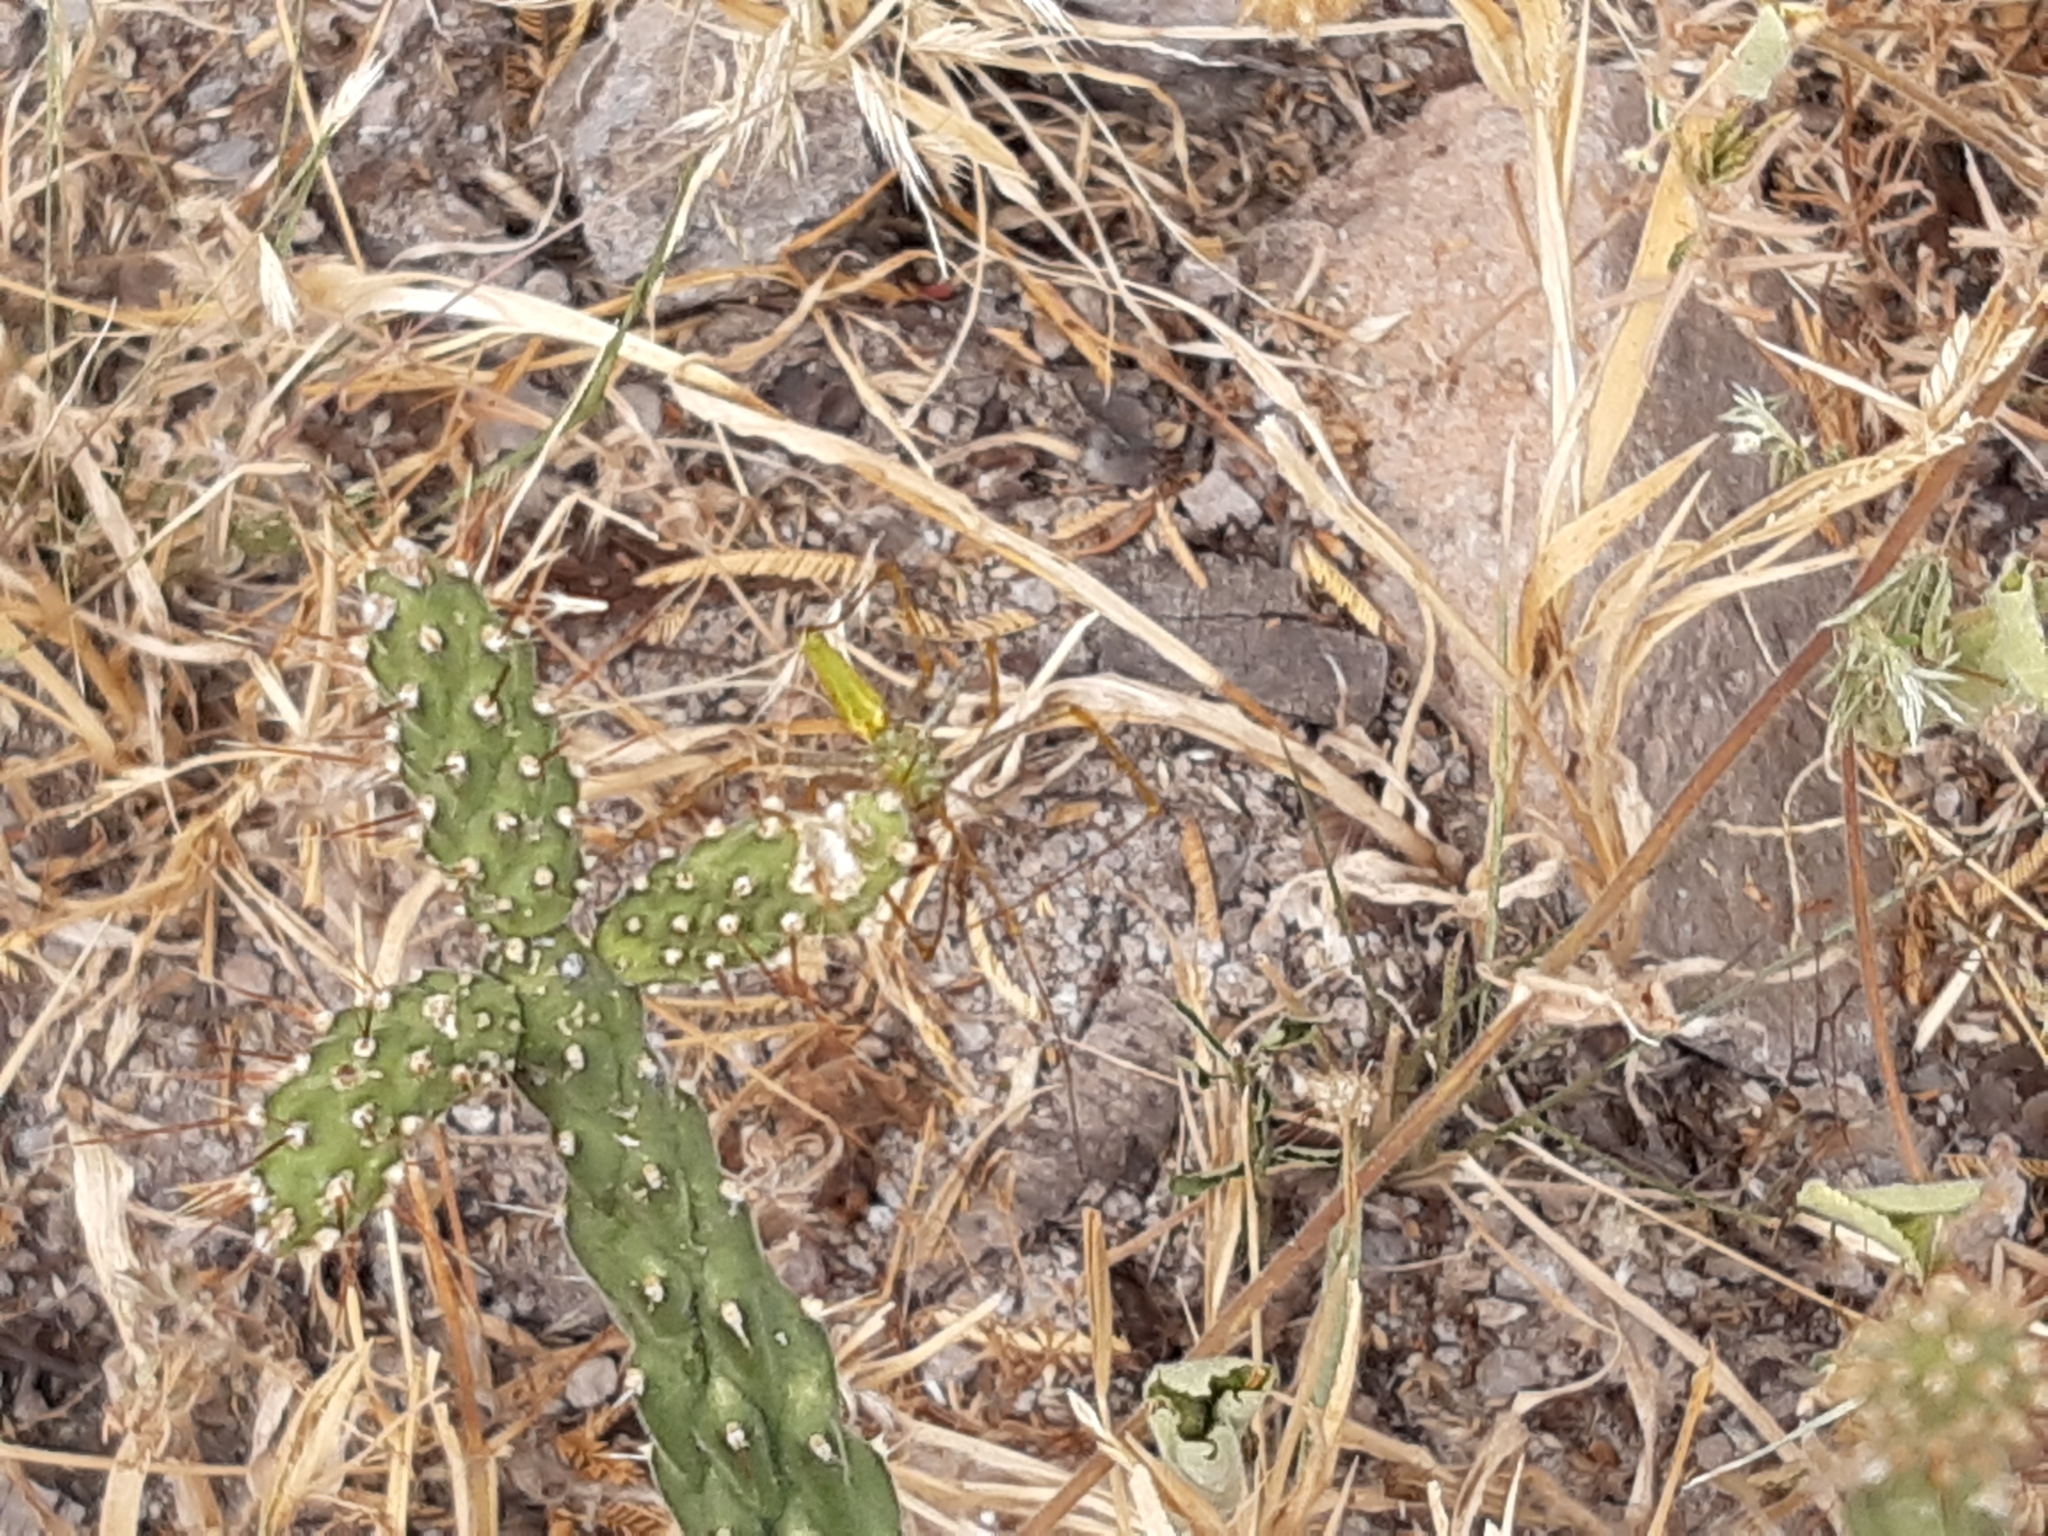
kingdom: Animalia
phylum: Arthropoda
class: Arachnida
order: Araneae
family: Oxyopidae
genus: Peucetia
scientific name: Peucetia
